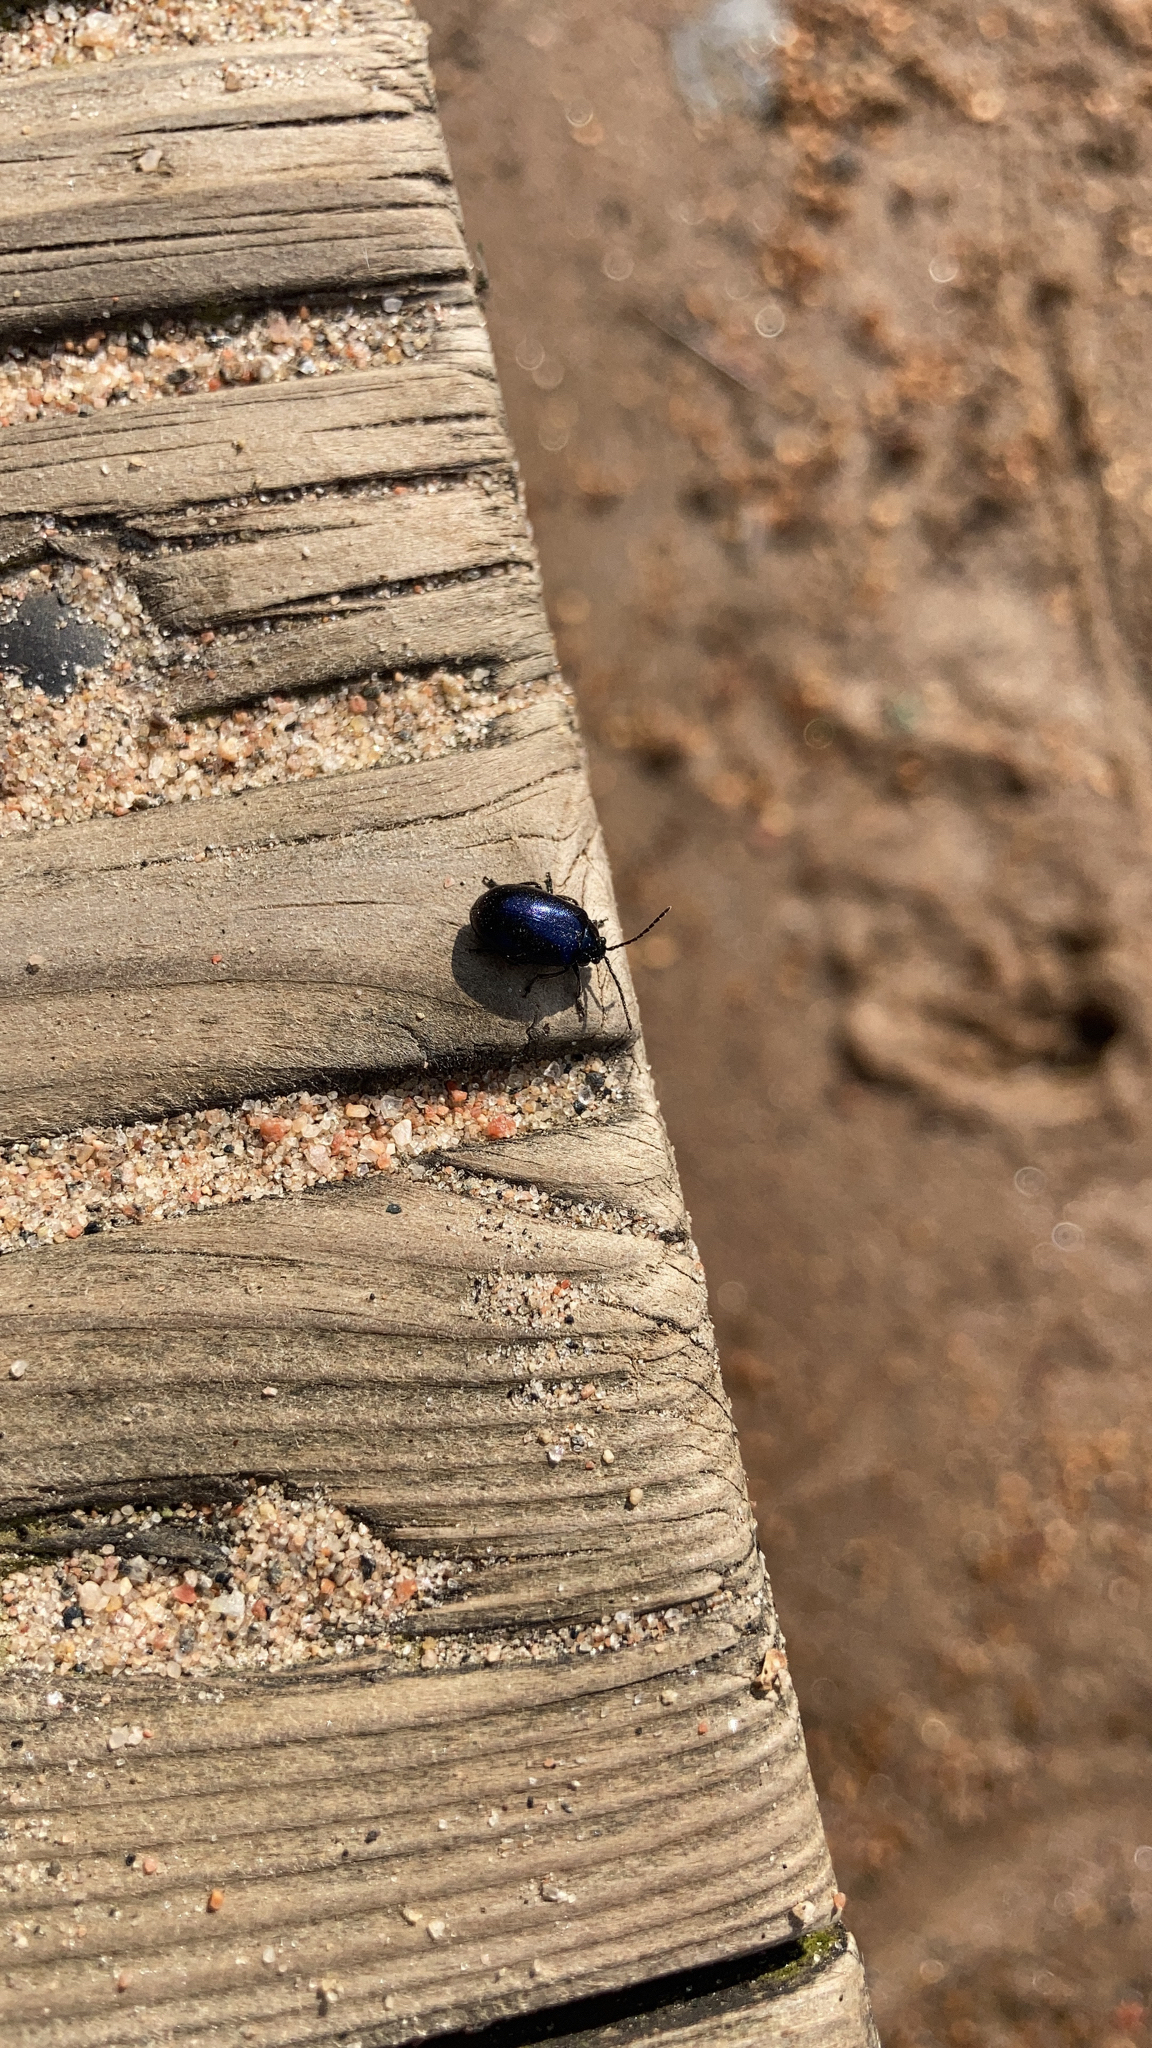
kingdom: Animalia
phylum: Arthropoda
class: Insecta
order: Coleoptera
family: Chrysomelidae
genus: Agelastica
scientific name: Agelastica alni
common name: Alder leaf beetle
